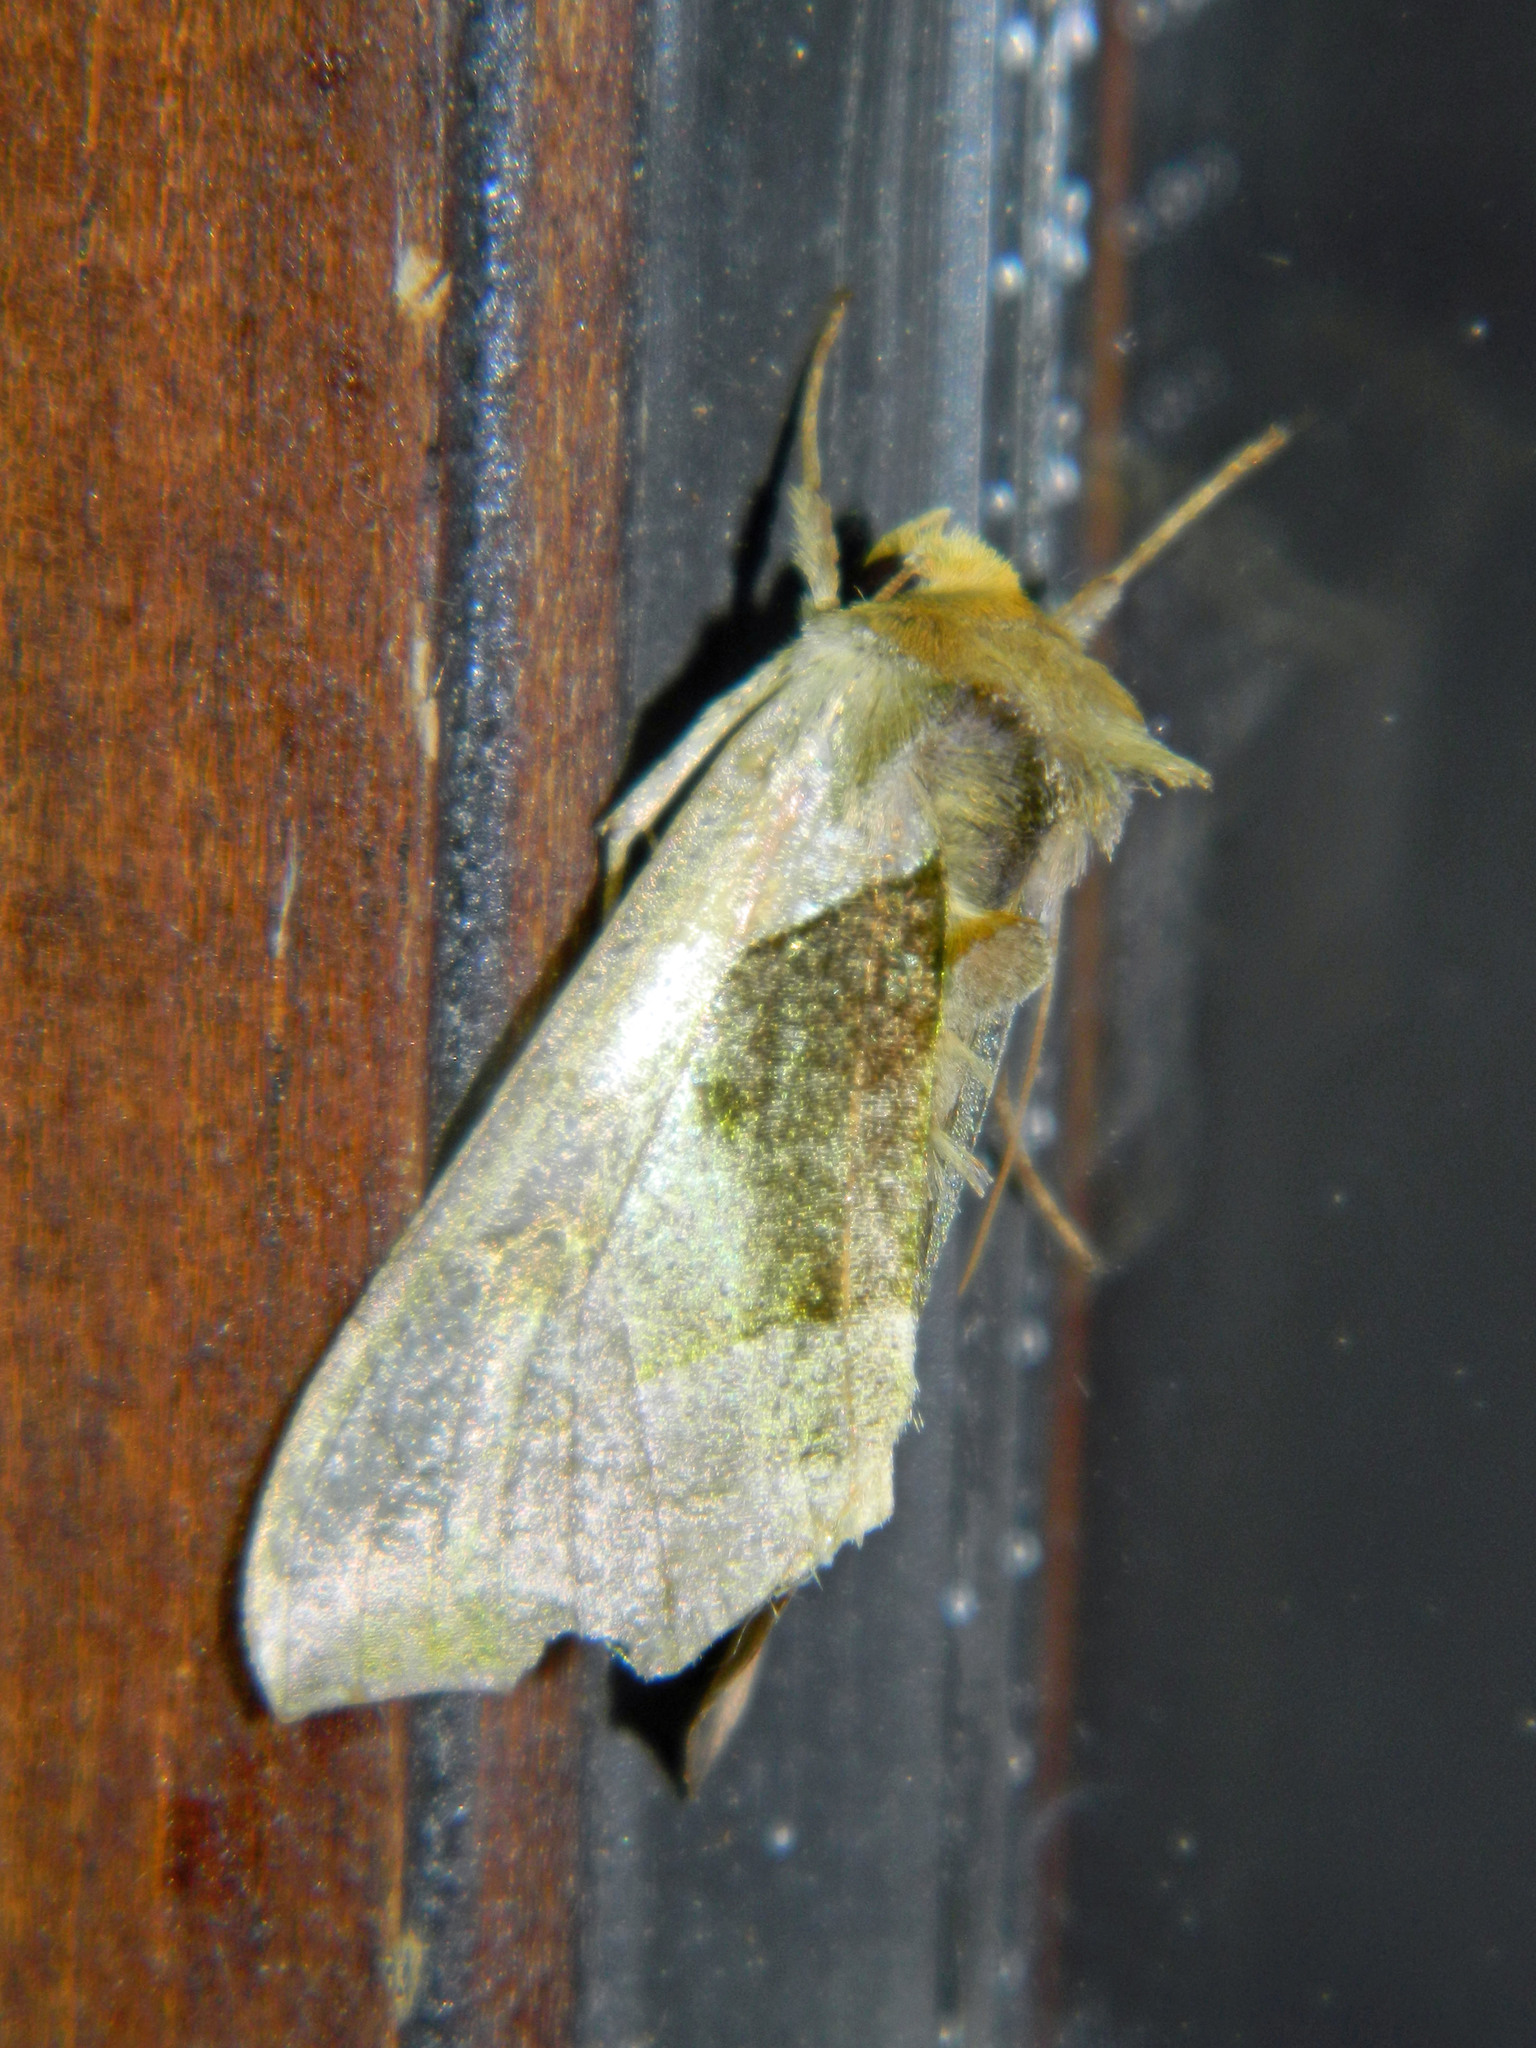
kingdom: Animalia
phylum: Arthropoda
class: Insecta
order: Lepidoptera
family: Noctuidae
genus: Diachrysia
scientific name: Diachrysia balluca
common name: Green-patched looper moth
